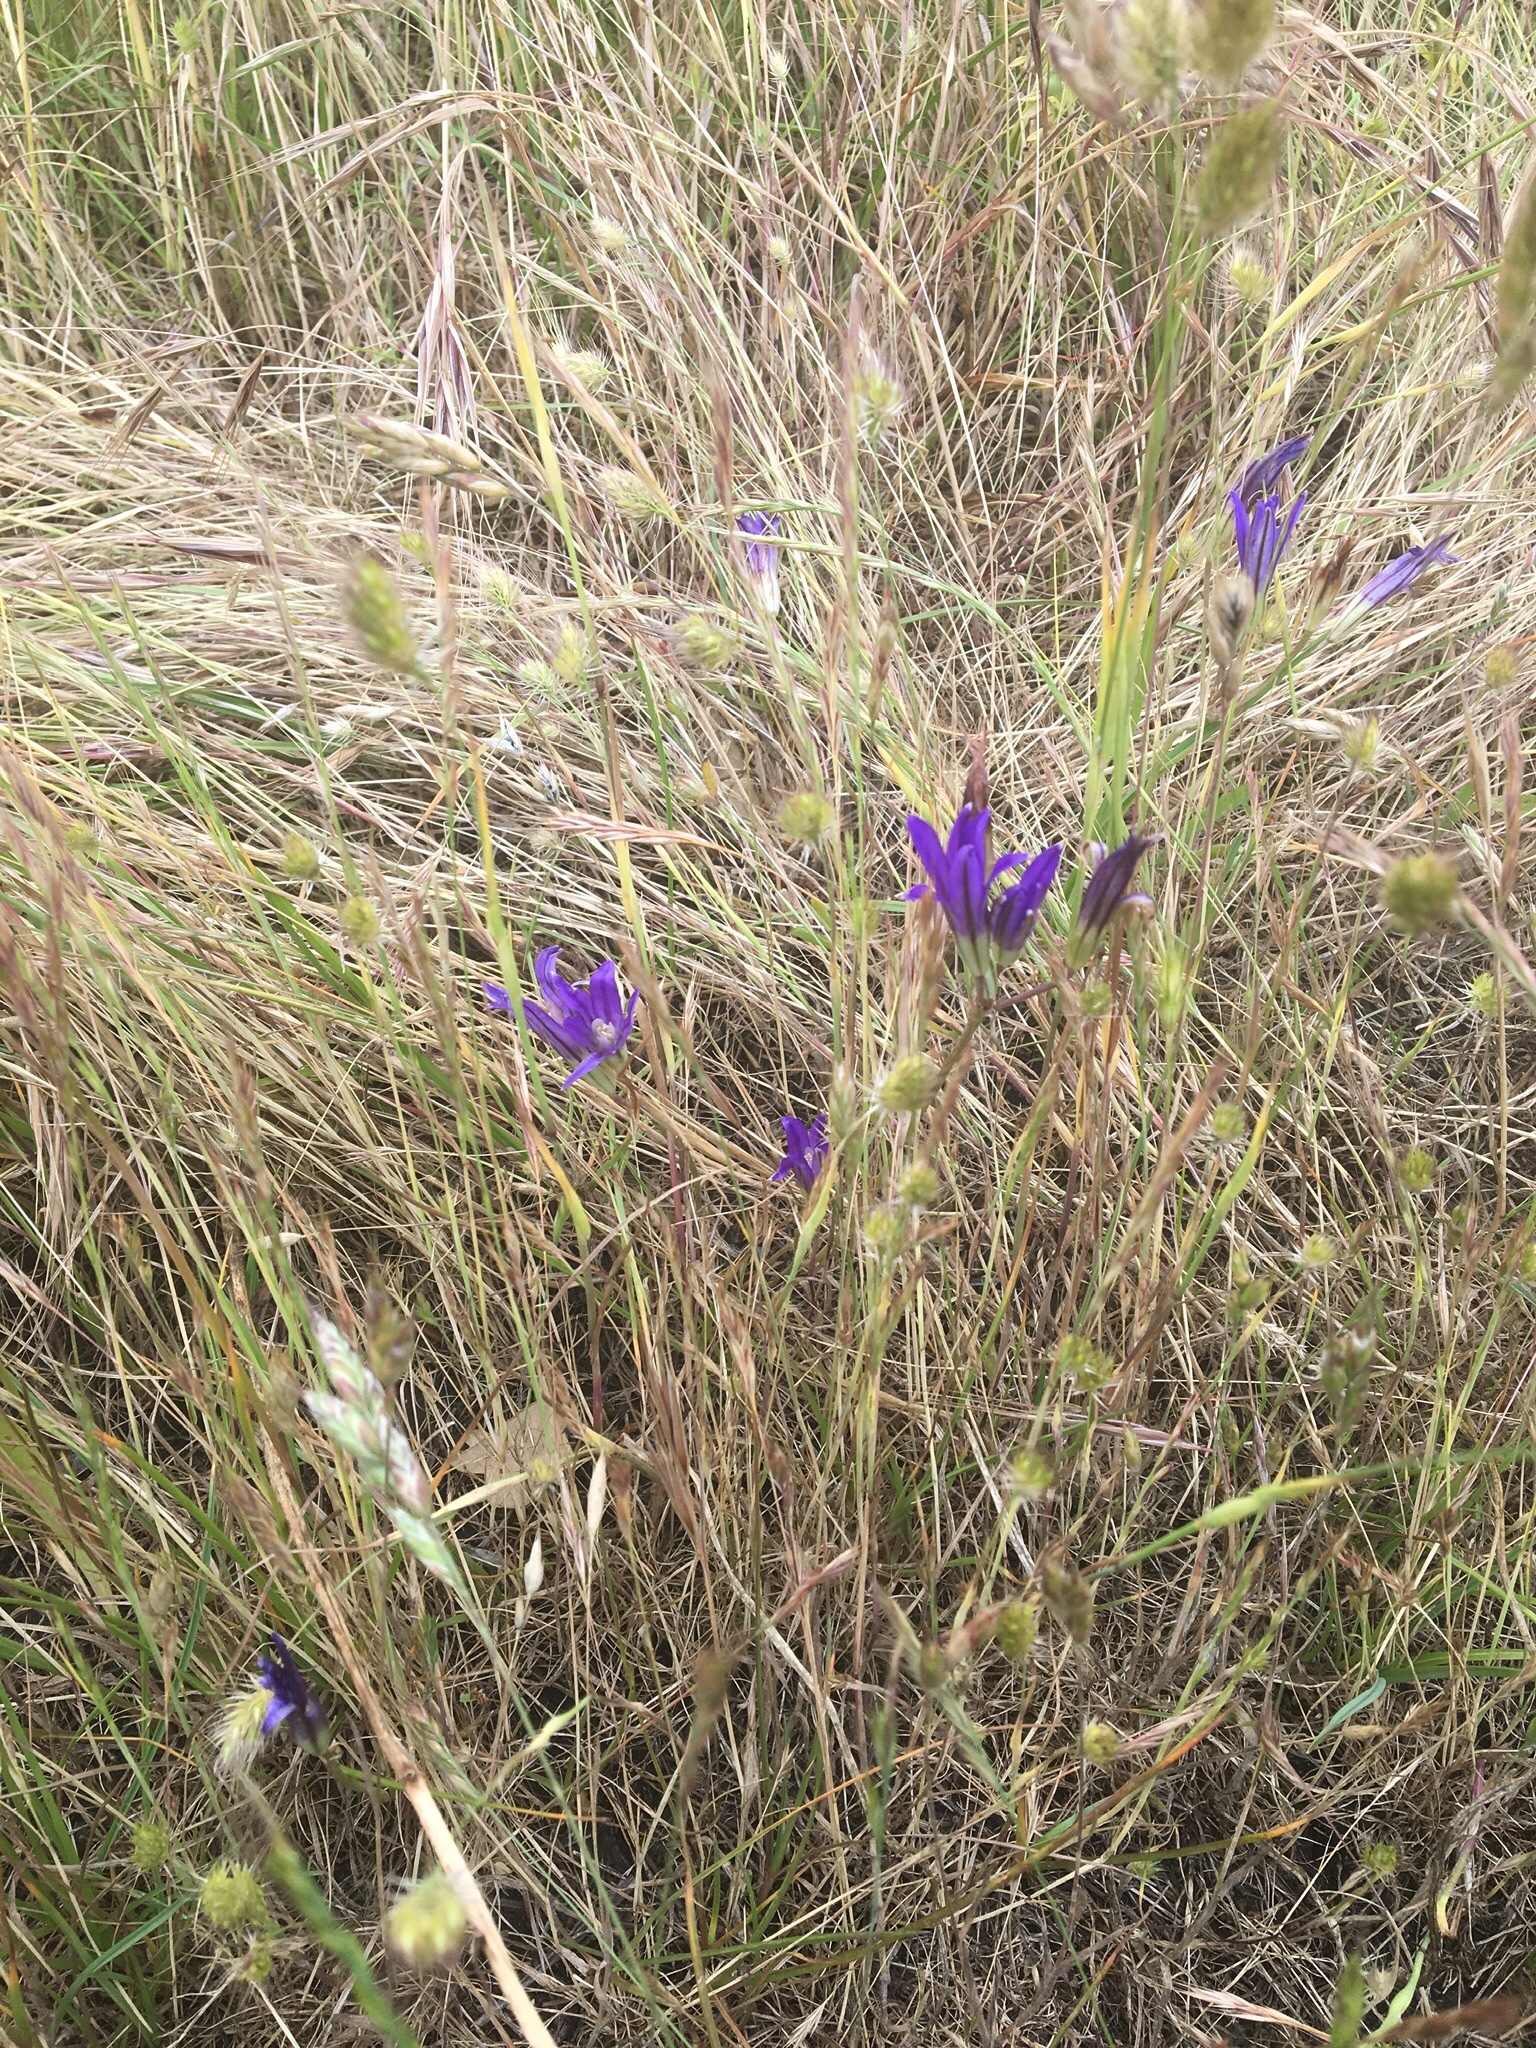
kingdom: Plantae
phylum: Tracheophyta
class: Liliopsida
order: Asparagales
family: Asparagaceae
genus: Brodiaea
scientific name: Brodiaea coronaria
